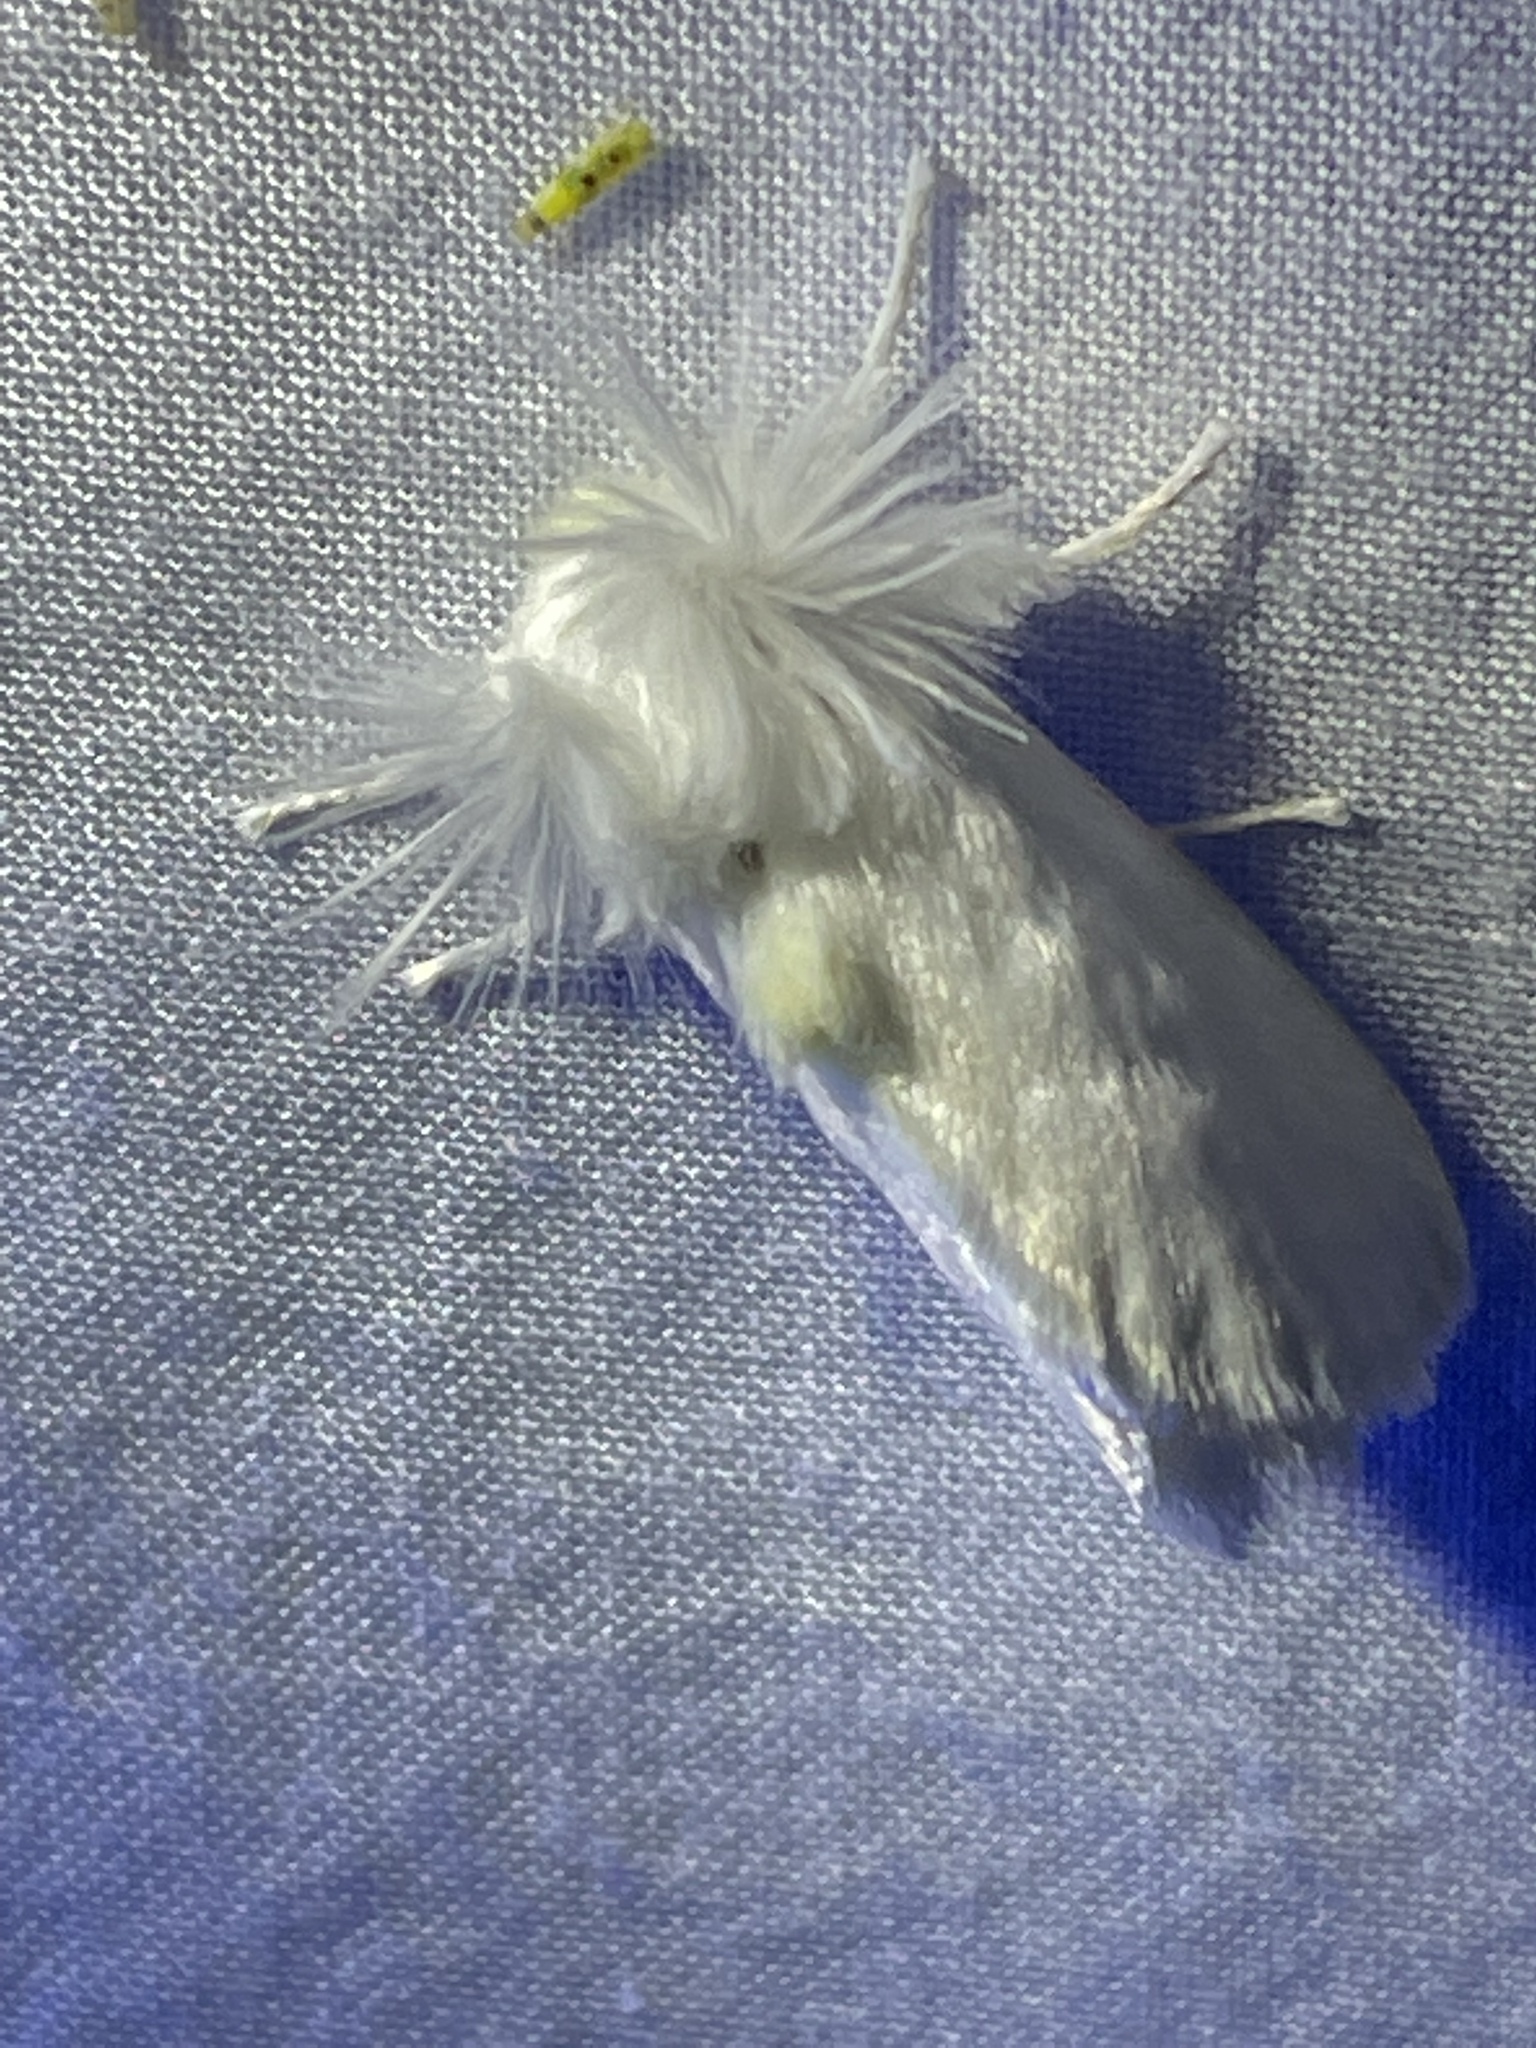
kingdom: Animalia
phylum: Arthropoda
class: Insecta
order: Lepidoptera
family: Megalopygidae
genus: Norape
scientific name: Norape cretata
